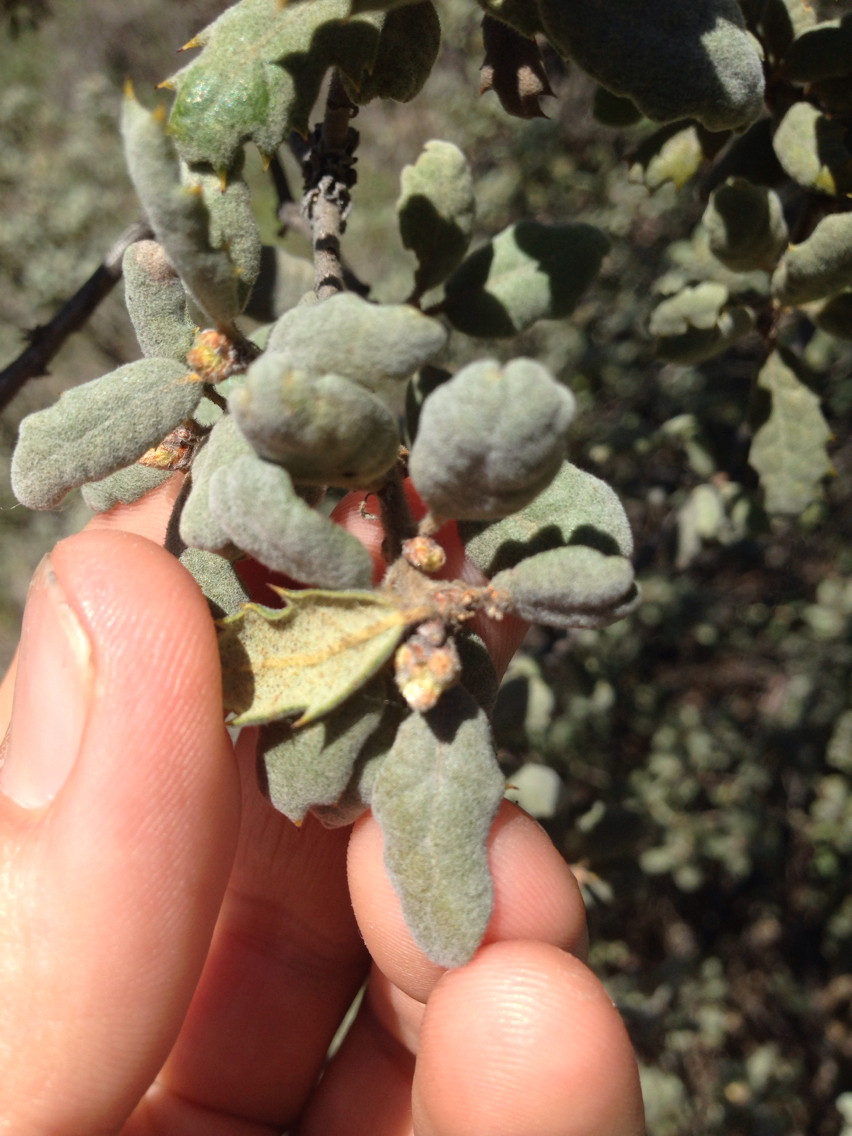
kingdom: Plantae
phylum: Tracheophyta
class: Magnoliopsida
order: Fagales
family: Fagaceae
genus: Quercus
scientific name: Quercus durata
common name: Leather oak
